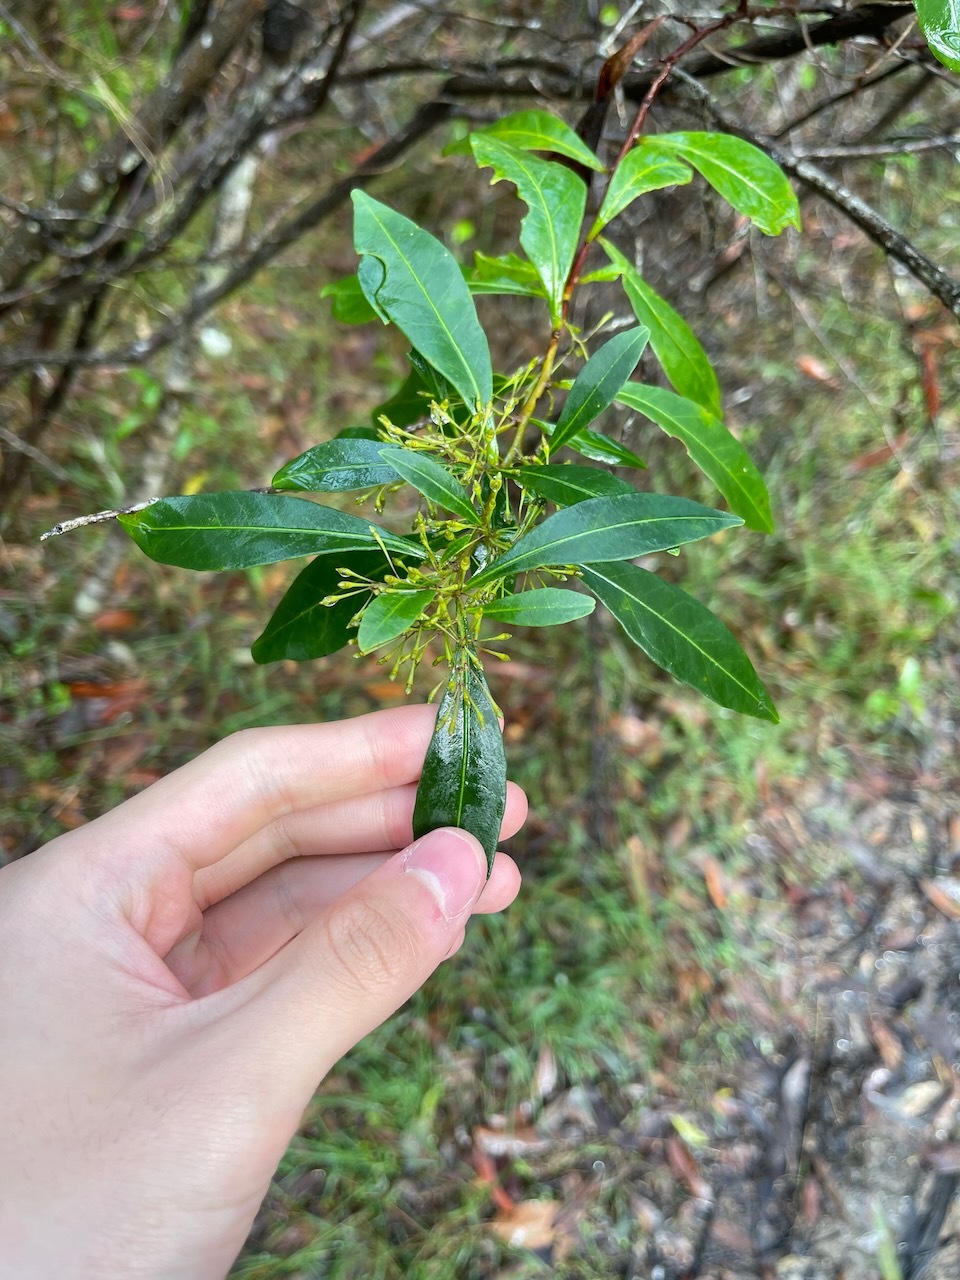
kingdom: Plantae
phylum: Tracheophyta
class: Magnoliopsida
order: Sapindales
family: Sapindaceae
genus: Dodonaea
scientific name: Dodonaea triquetra
